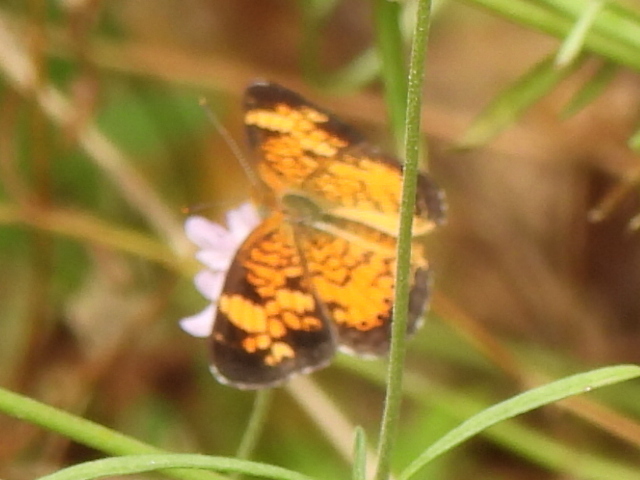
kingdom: Animalia
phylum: Arthropoda
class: Insecta
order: Lepidoptera
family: Nymphalidae
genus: Phyciodes
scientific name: Phyciodes tharos
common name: Pearl crescent
